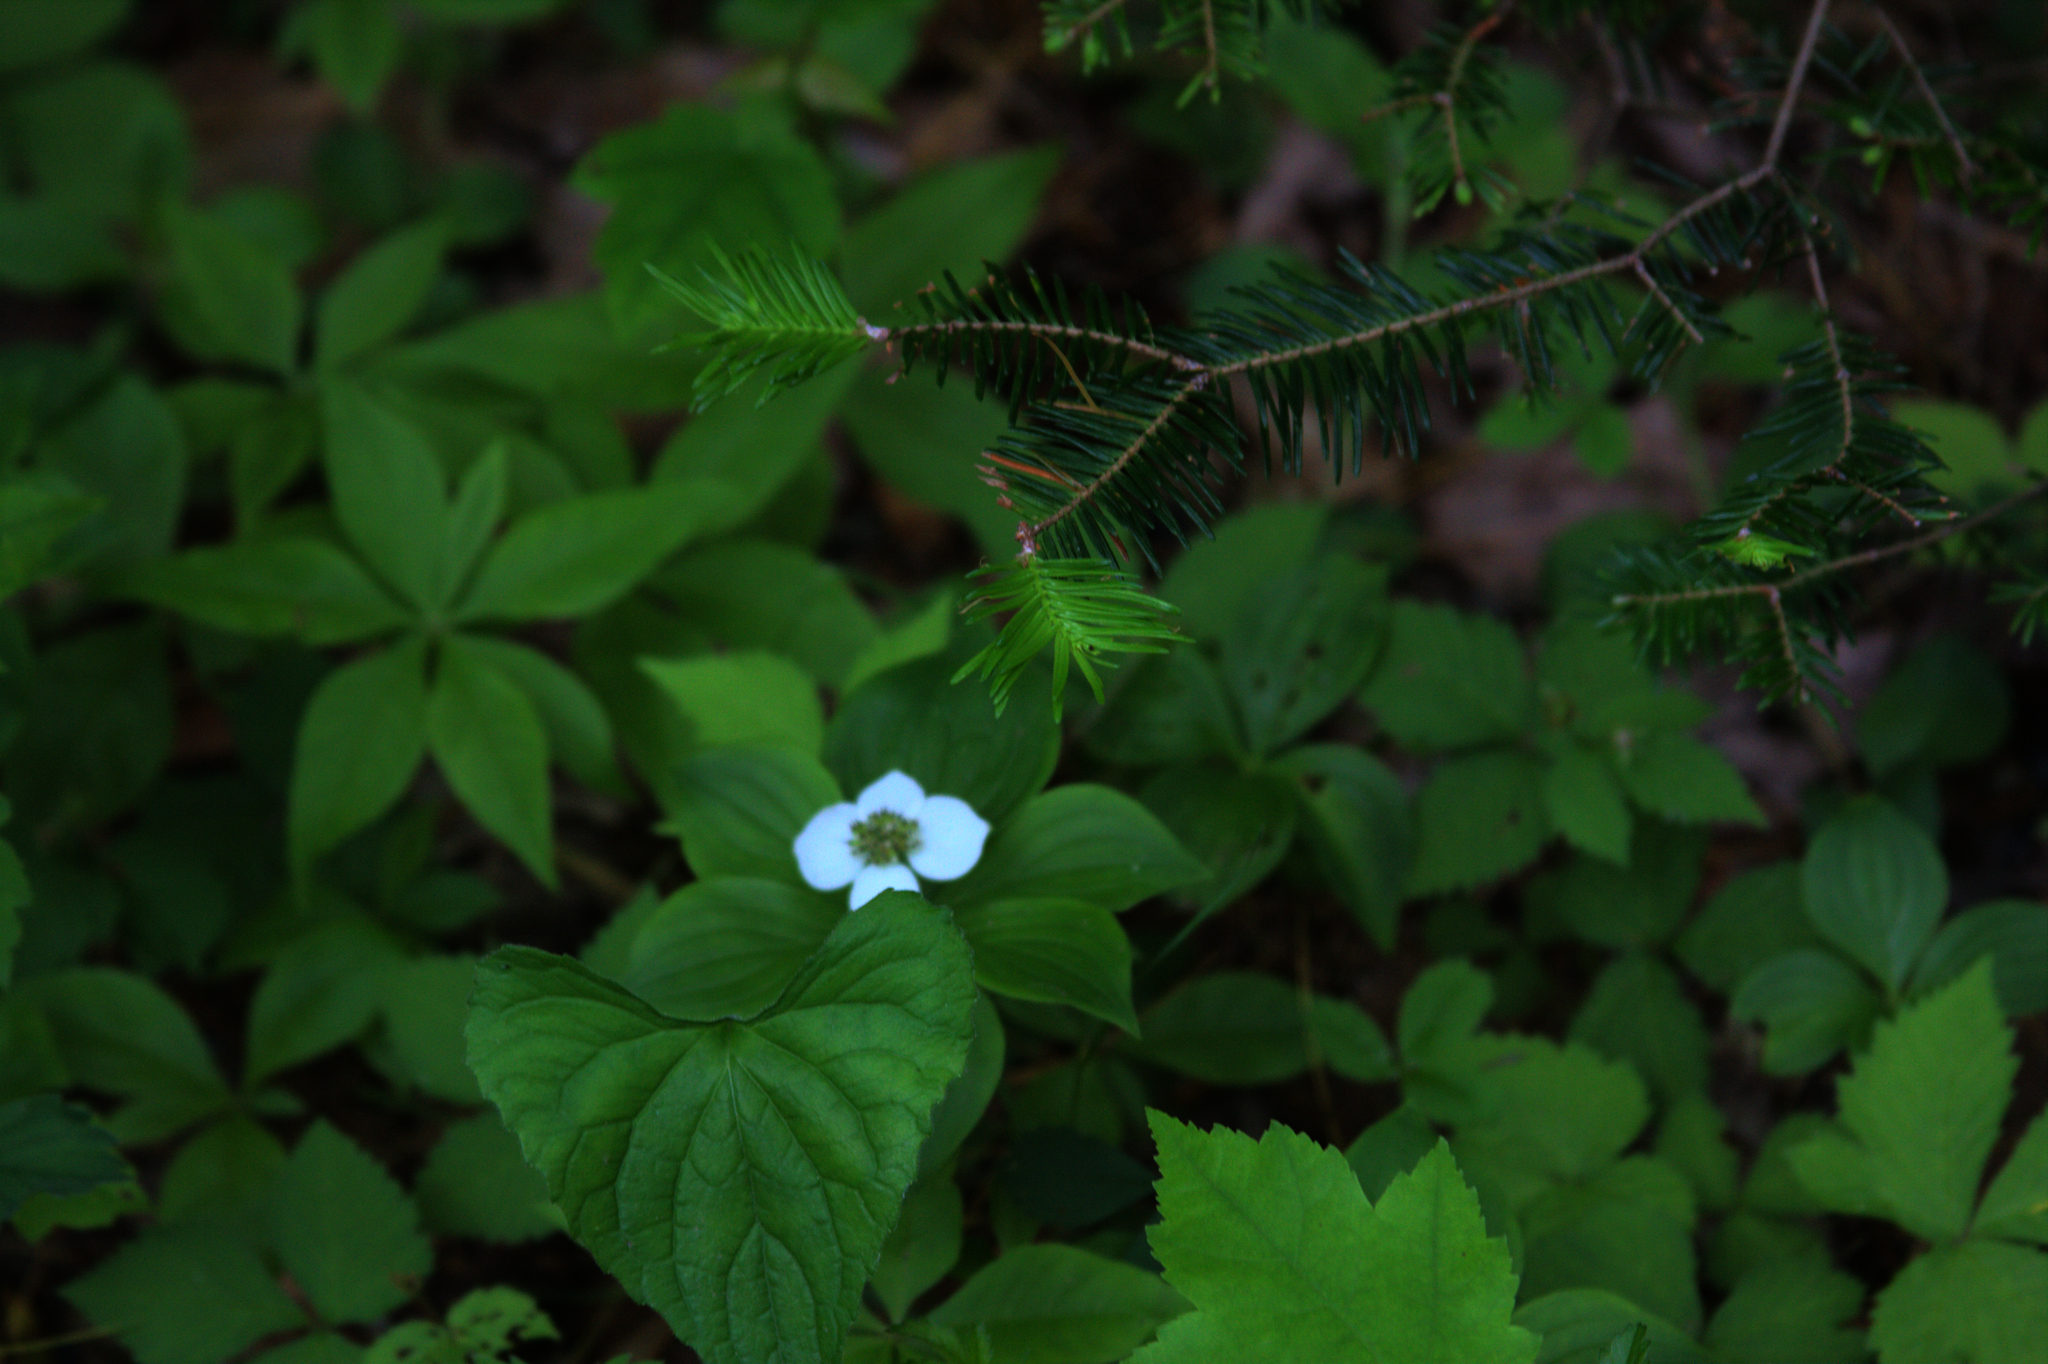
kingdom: Plantae
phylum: Tracheophyta
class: Pinopsida
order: Pinales
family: Pinaceae
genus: Abies
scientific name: Abies balsamea
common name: Balsam fir
